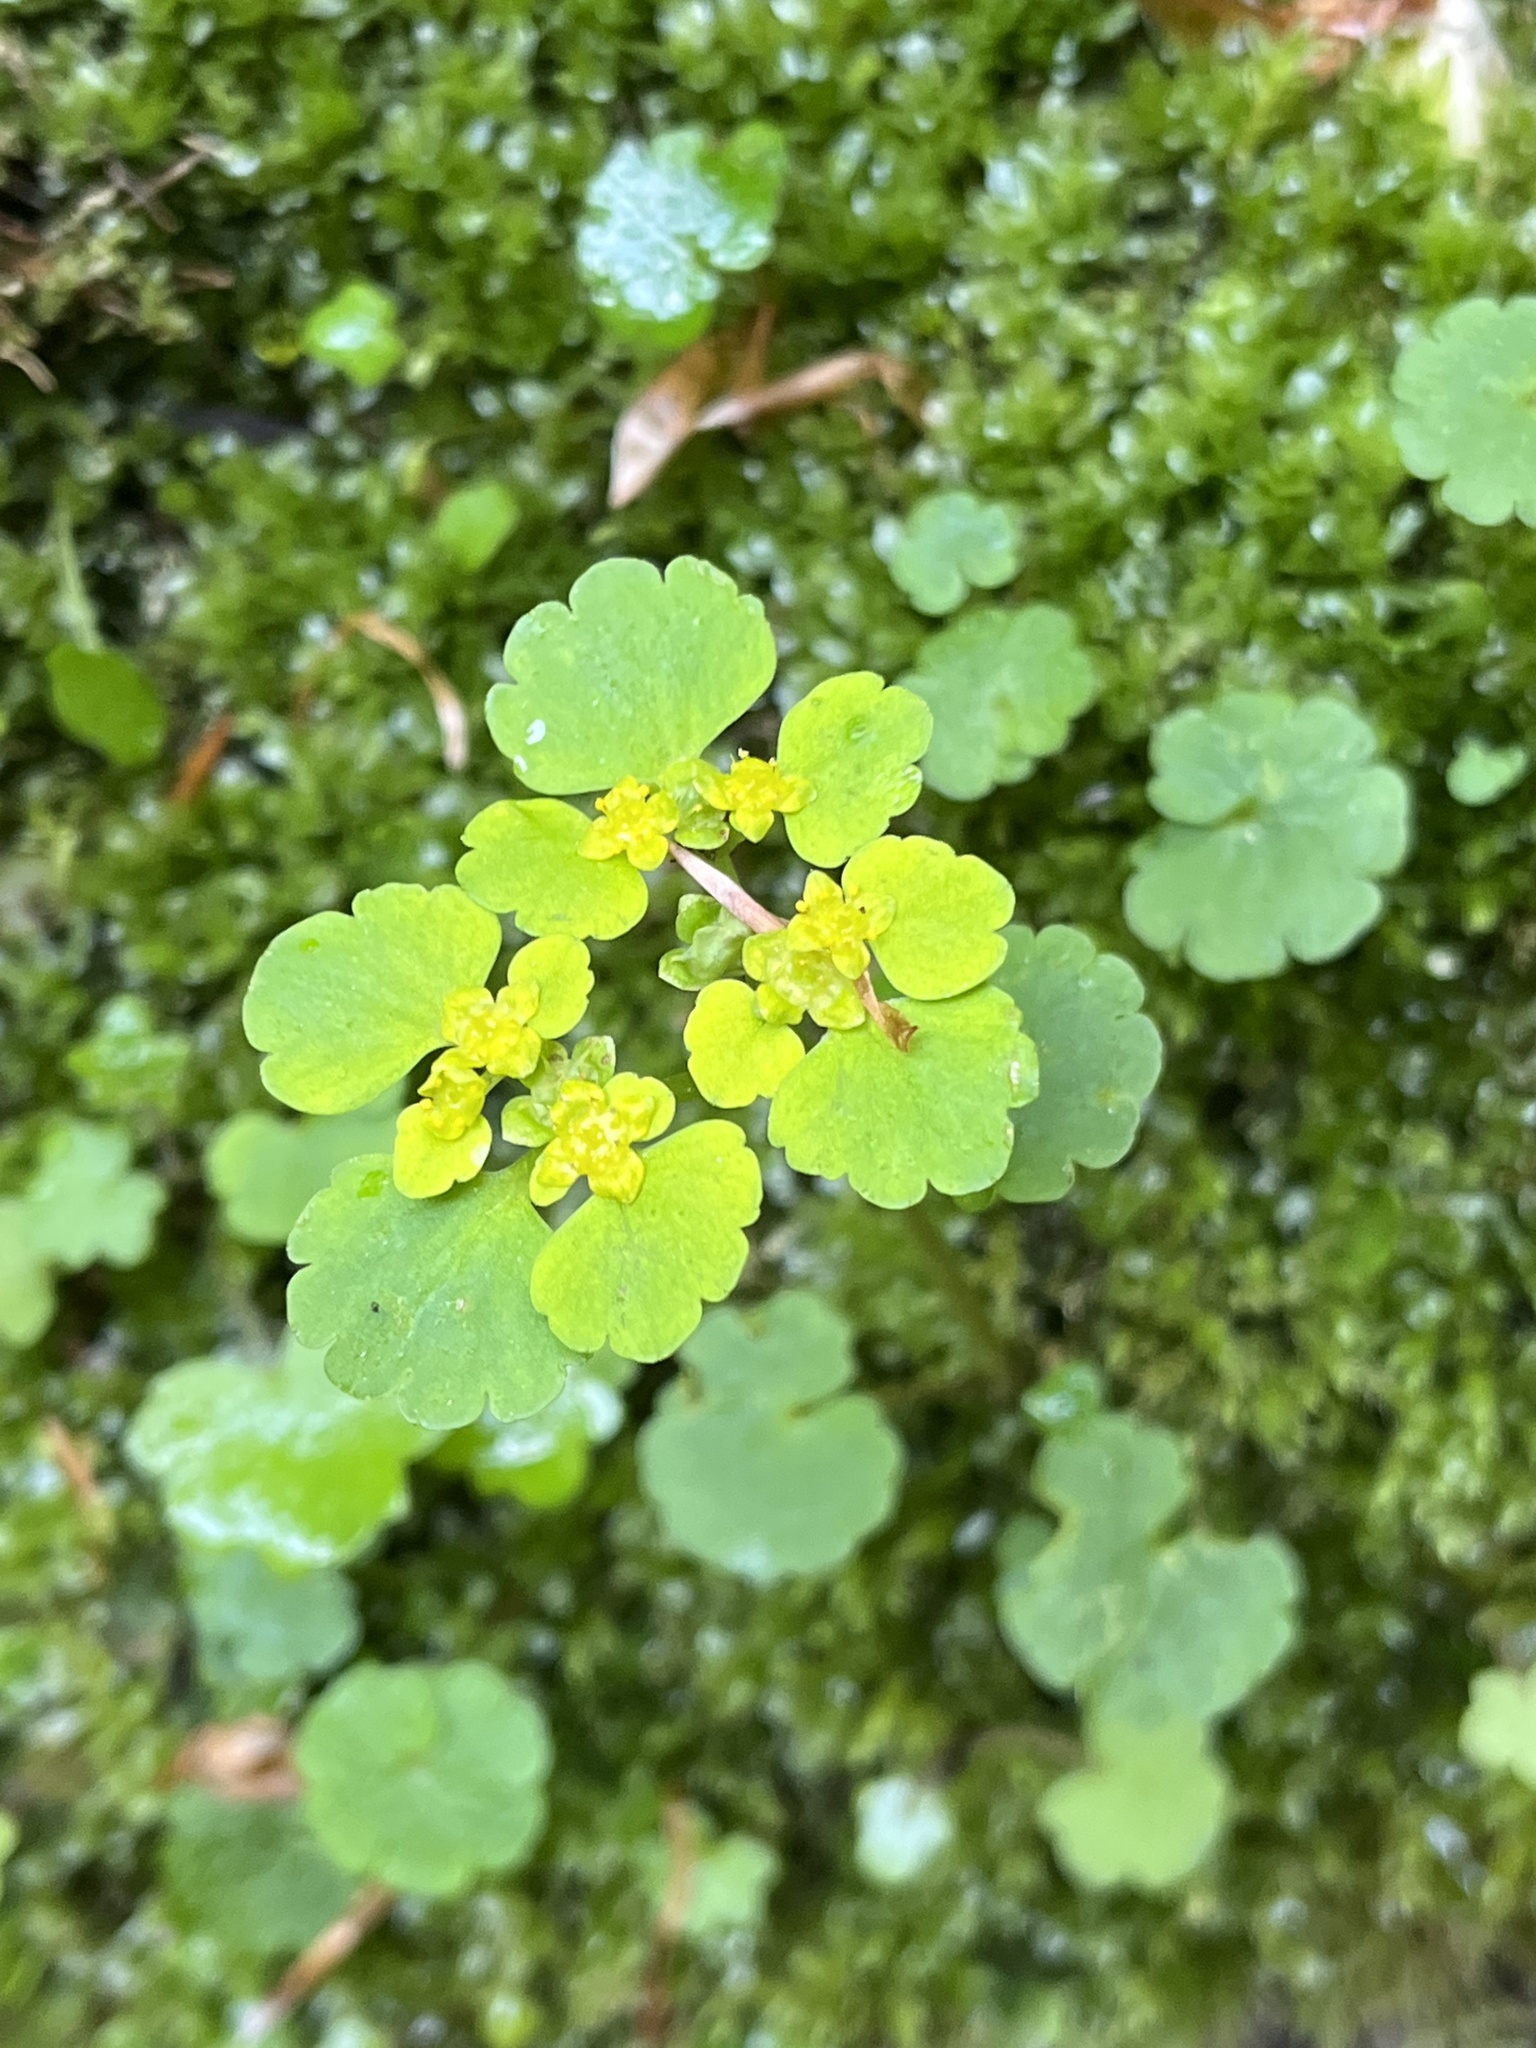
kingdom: Plantae
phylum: Tracheophyta
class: Magnoliopsida
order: Saxifragales
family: Saxifragaceae
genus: Chrysosplenium
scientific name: Chrysosplenium alternifolium
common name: Alternate-leaved golden-saxifrage
